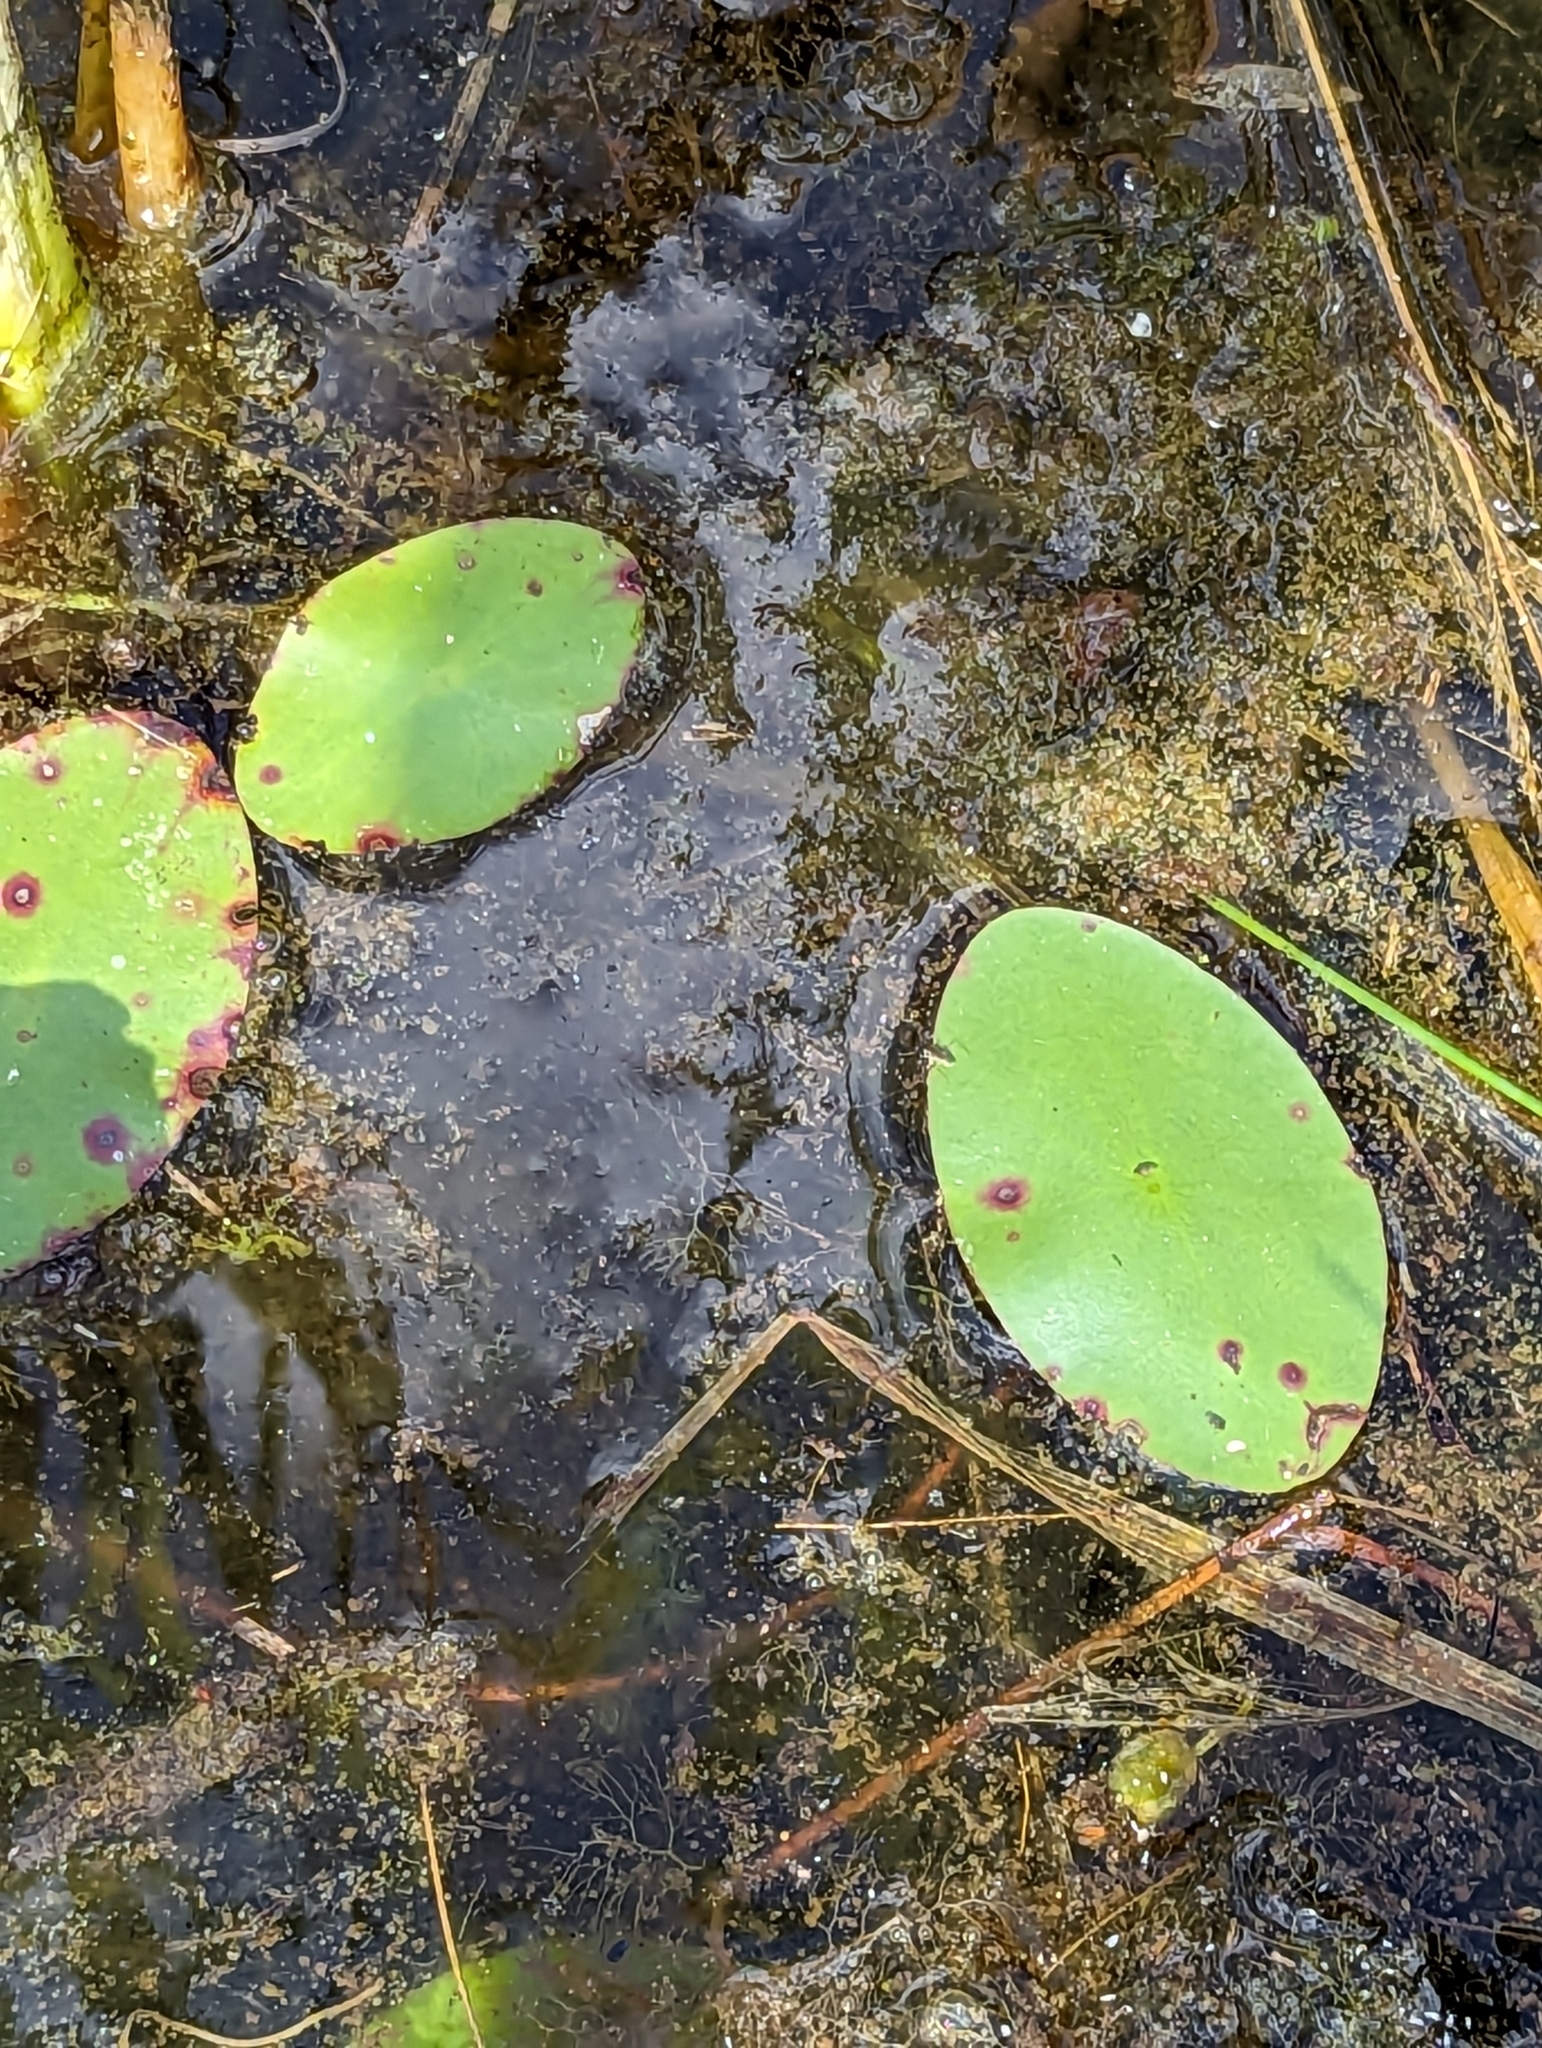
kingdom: Plantae
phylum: Tracheophyta
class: Magnoliopsida
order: Nymphaeales
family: Cabombaceae
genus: Brasenia
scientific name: Brasenia schreberi
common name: Water-shield
